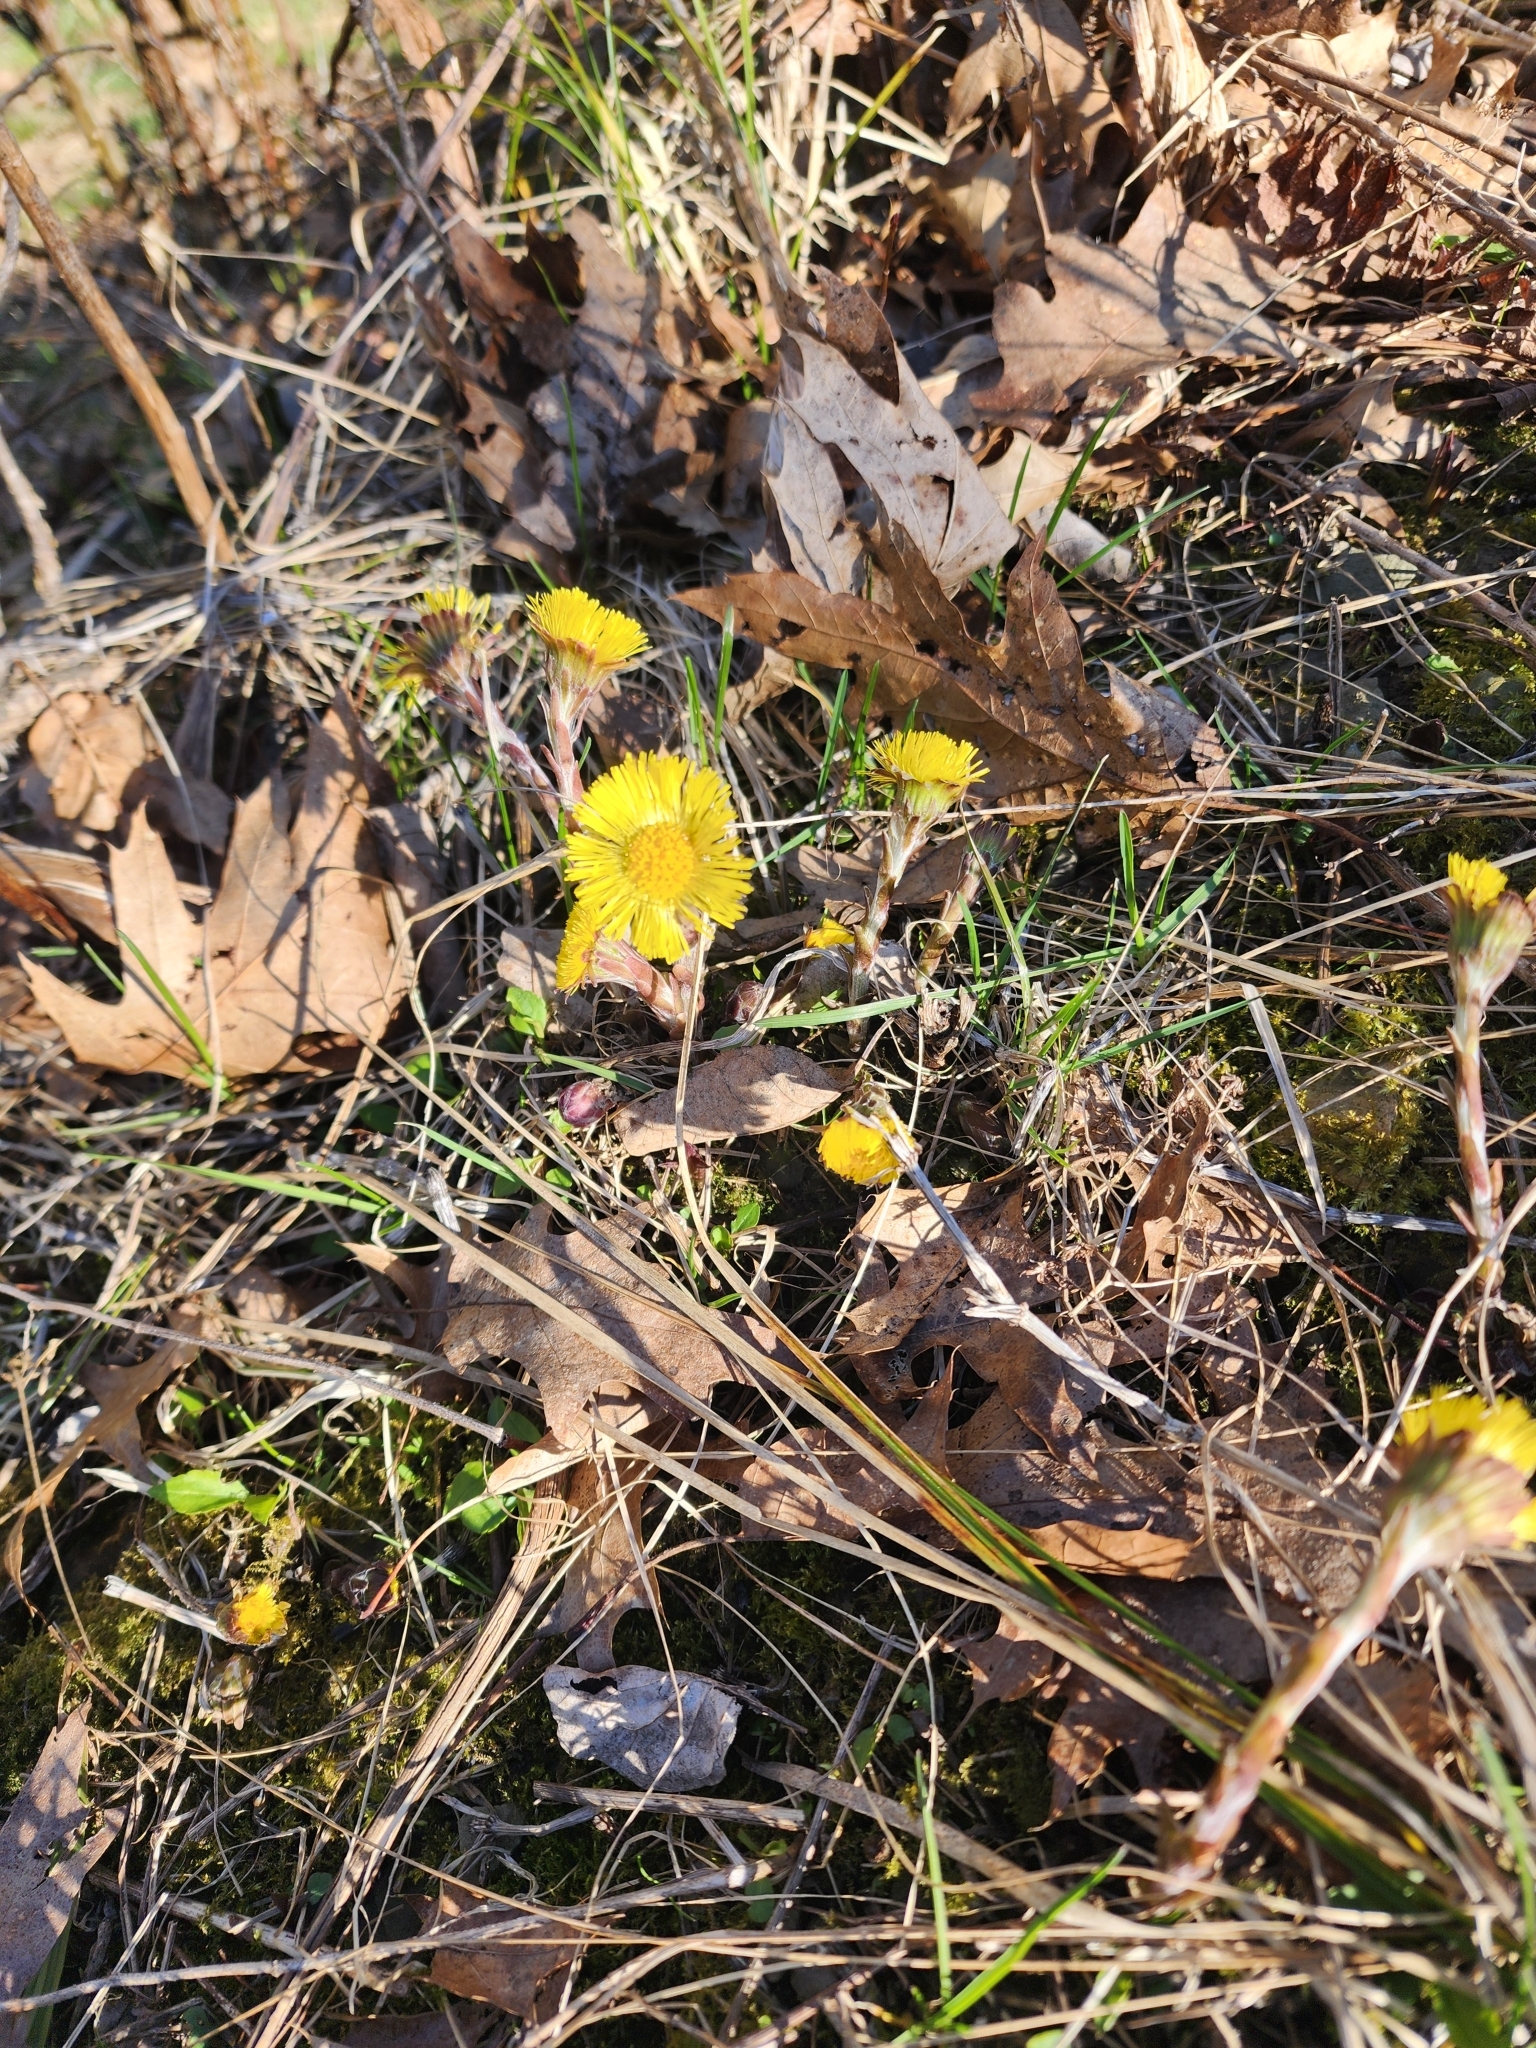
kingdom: Plantae
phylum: Tracheophyta
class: Magnoliopsida
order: Asterales
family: Asteraceae
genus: Tussilago
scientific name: Tussilago farfara
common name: Coltsfoot
